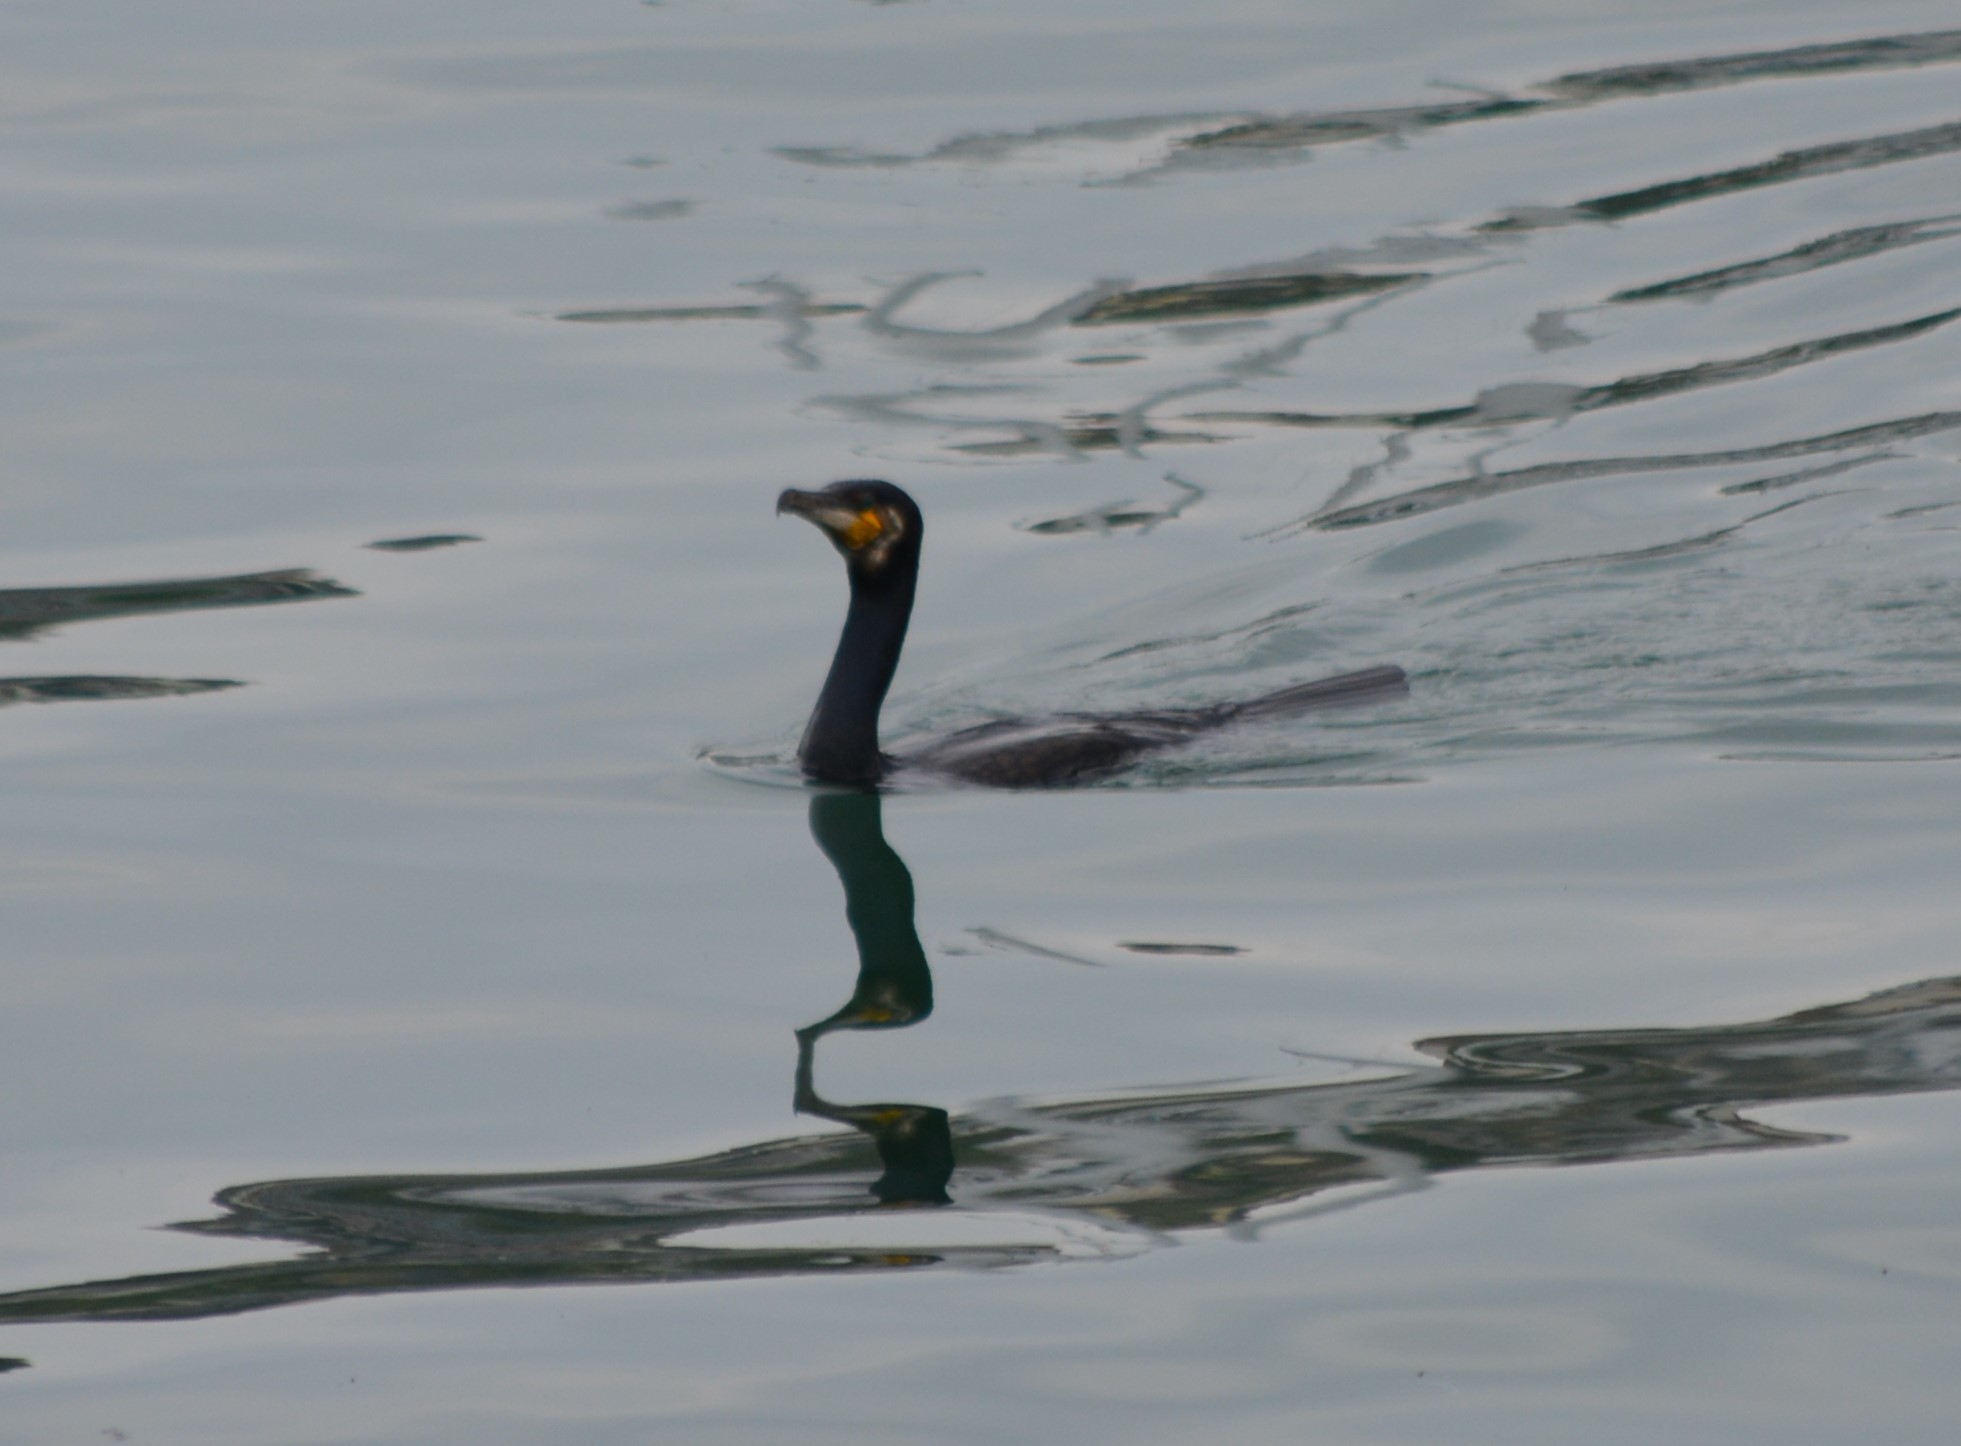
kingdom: Animalia
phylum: Chordata
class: Aves
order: Suliformes
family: Phalacrocoracidae
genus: Phalacrocorax
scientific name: Phalacrocorax carbo
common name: Great cormorant
